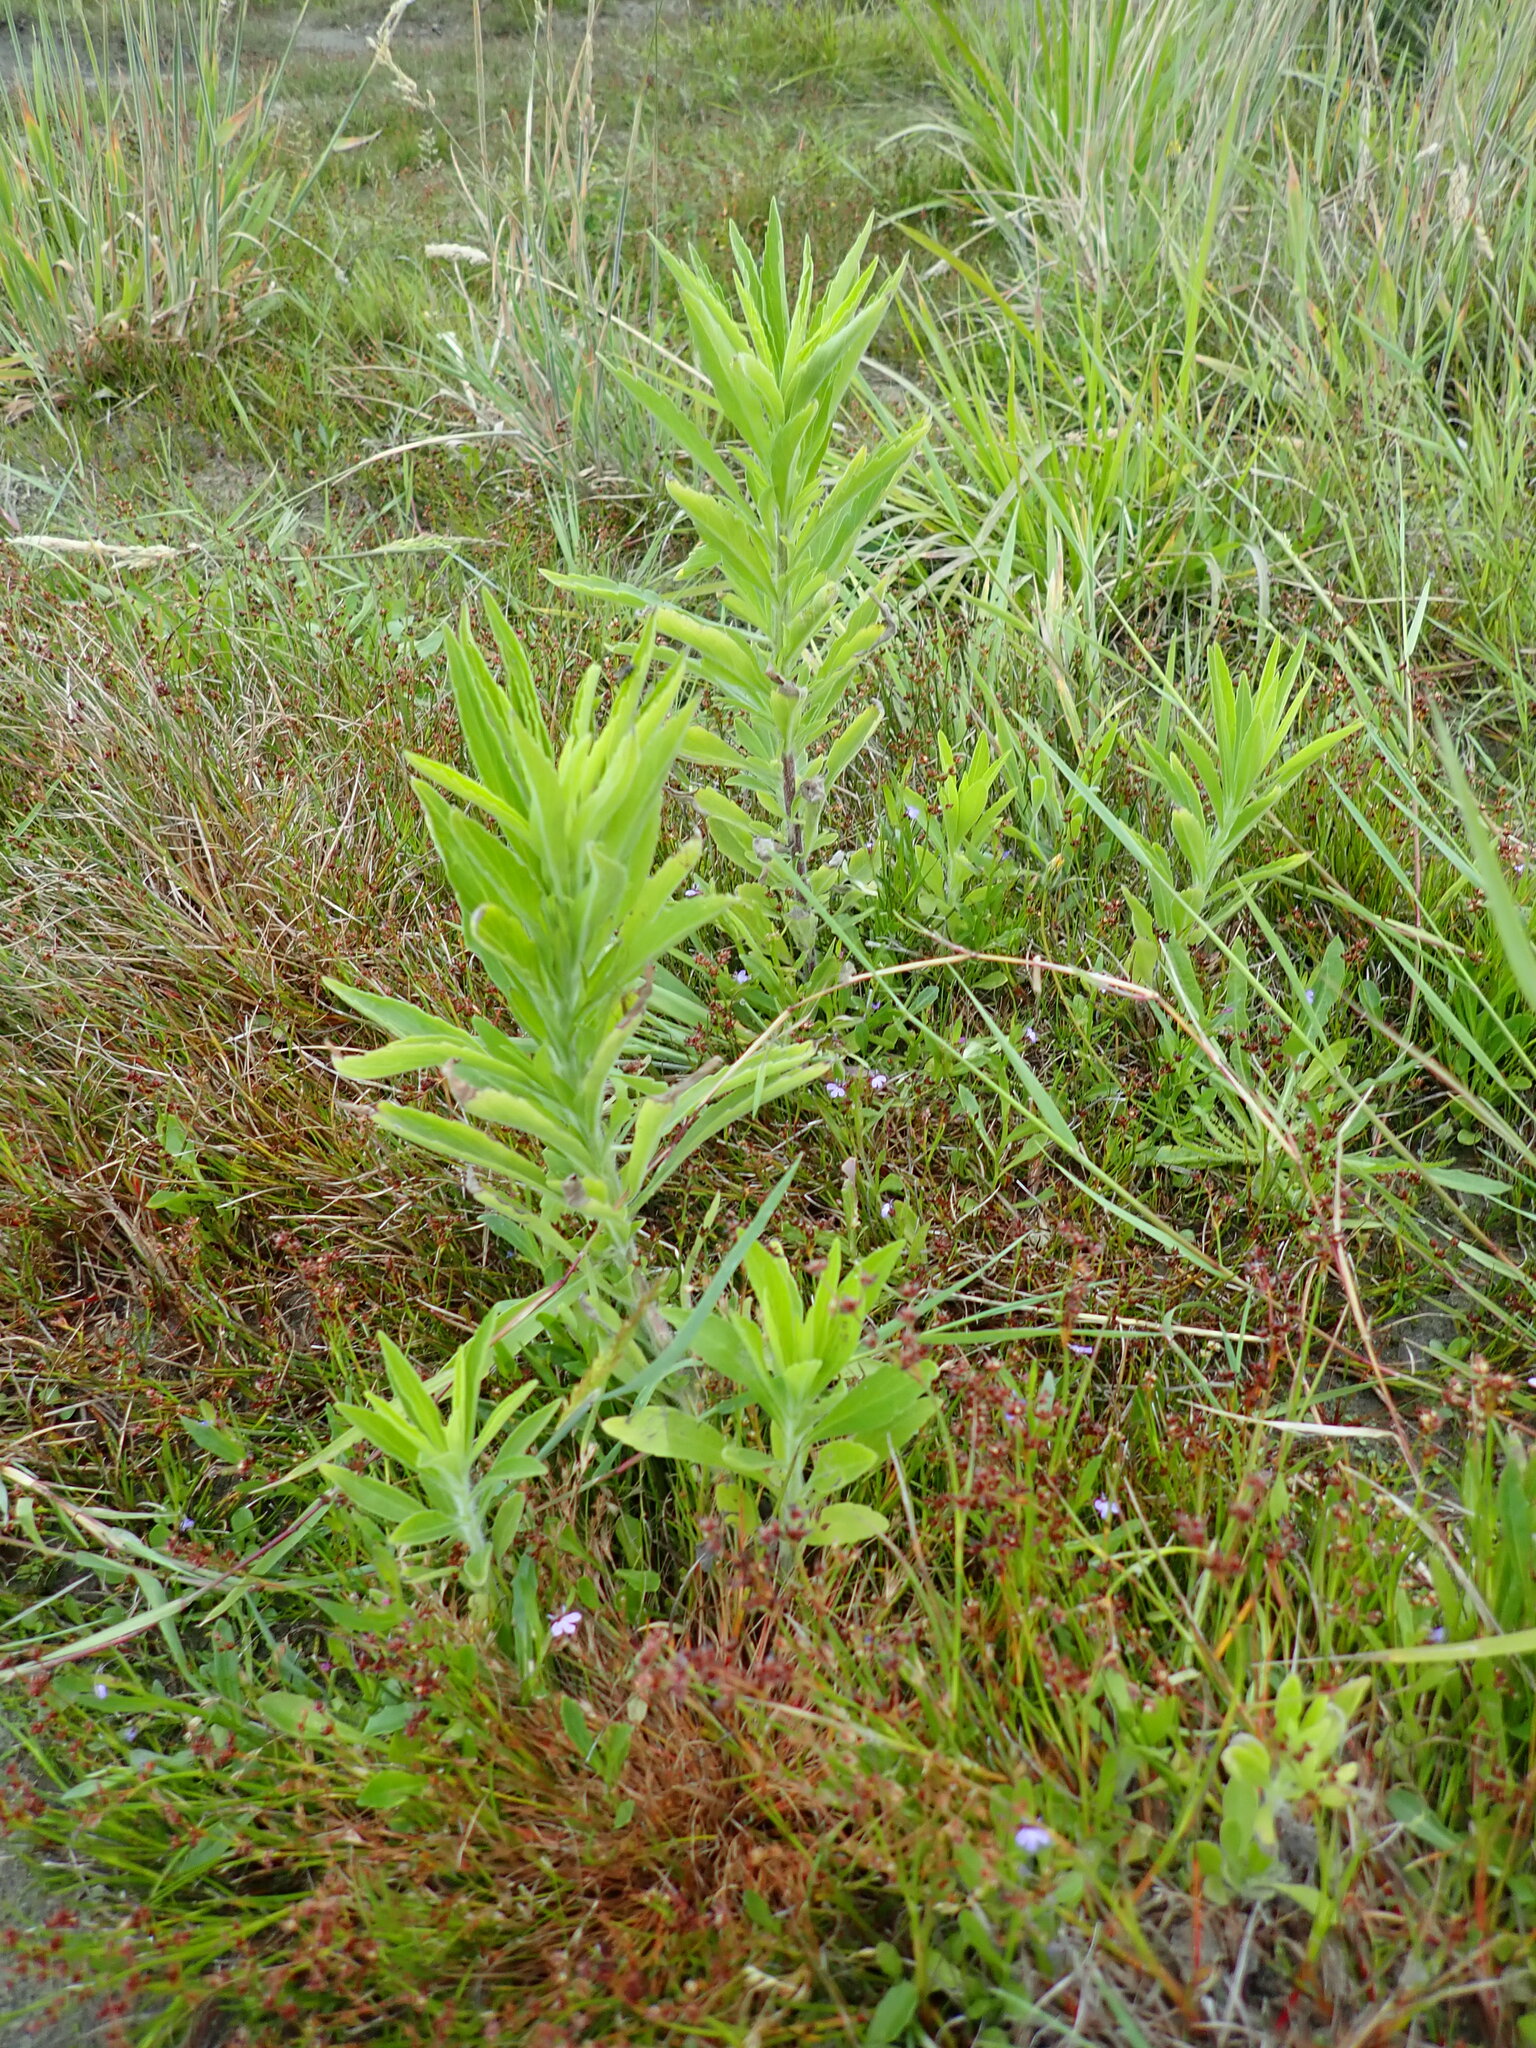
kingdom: Plantae
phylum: Tracheophyta
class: Magnoliopsida
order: Asterales
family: Asteraceae
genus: Erigeron
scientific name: Erigeron sumatrensis
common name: Daisy
